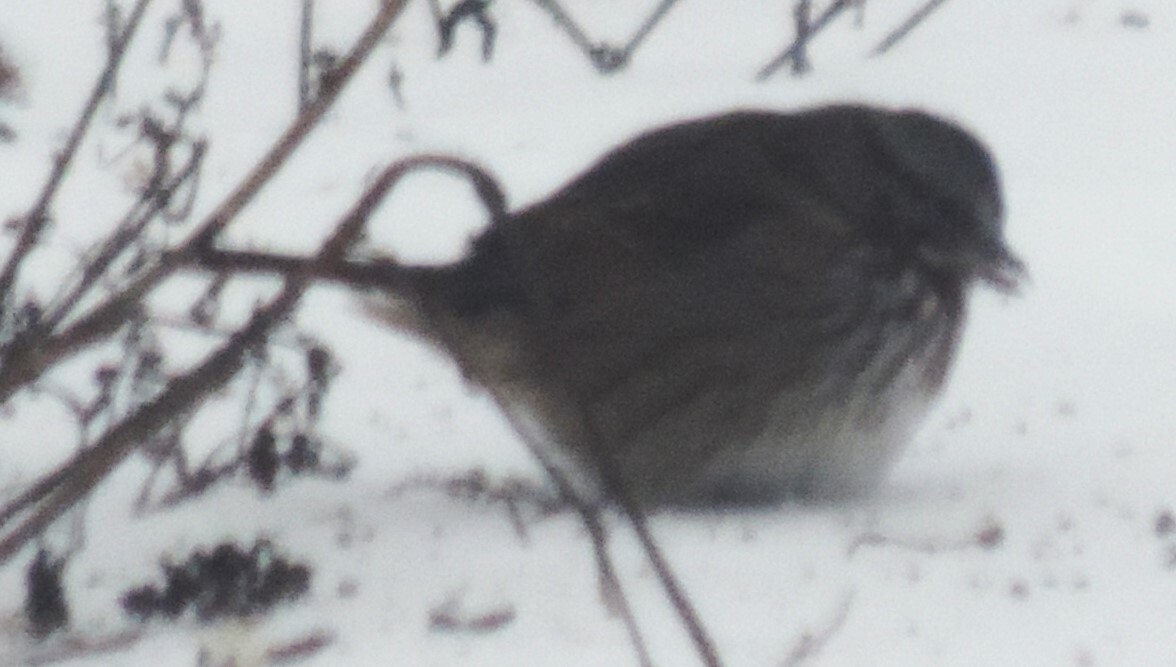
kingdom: Animalia
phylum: Chordata
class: Aves
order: Passeriformes
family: Passerellidae
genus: Melospiza
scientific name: Melospiza melodia
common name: Song sparrow
